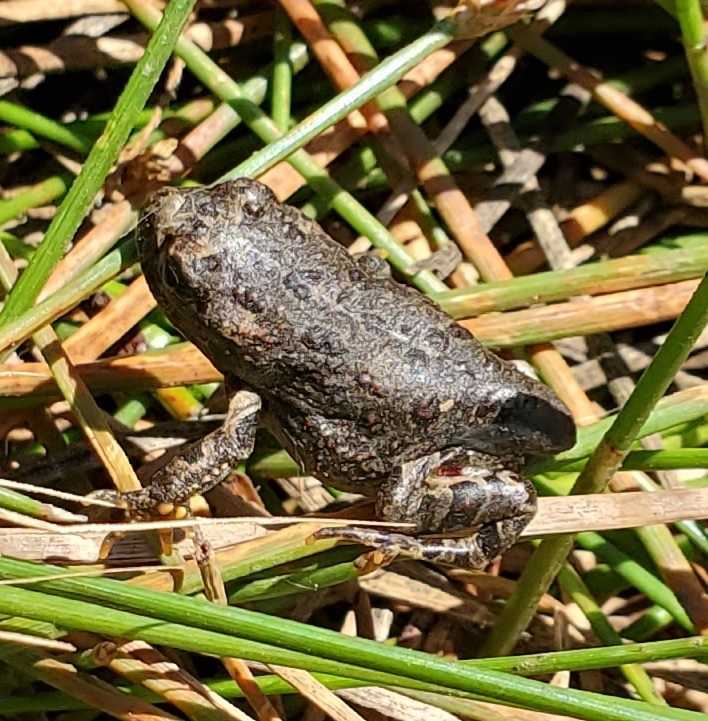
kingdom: Animalia
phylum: Chordata
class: Amphibia
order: Anura
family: Bufonidae
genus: Anaxyrus
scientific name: Anaxyrus boreas
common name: Western toad
